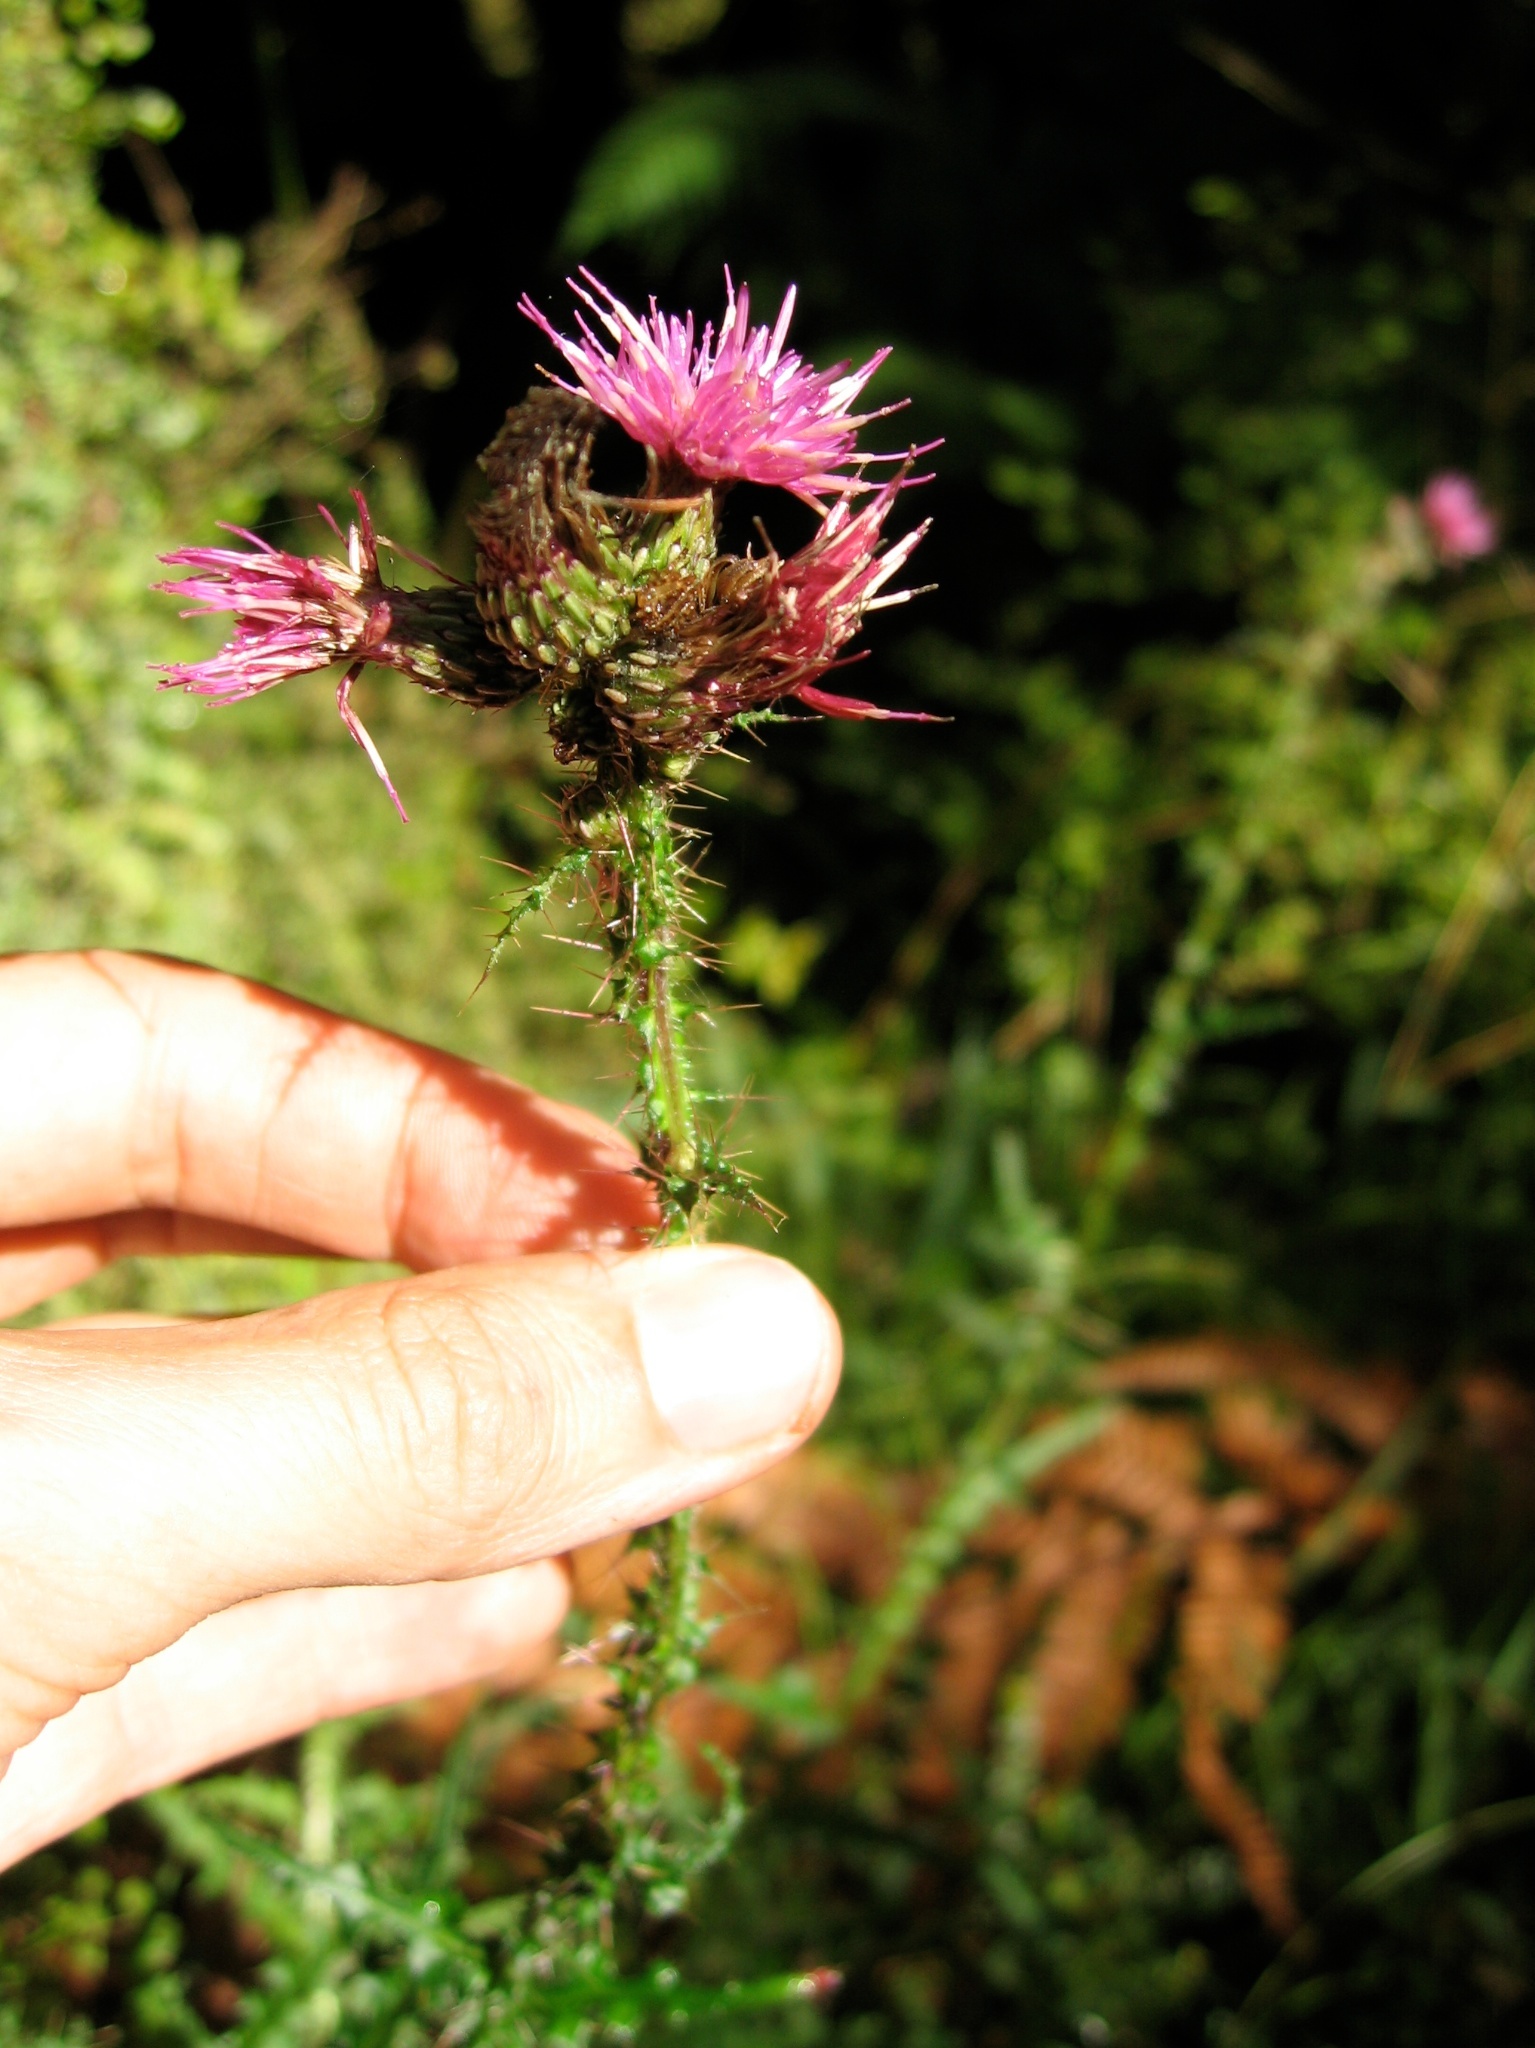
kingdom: Plantae
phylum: Tracheophyta
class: Magnoliopsida
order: Asterales
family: Asteraceae
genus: Cirsium
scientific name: Cirsium palustre
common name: Marsh thistle
